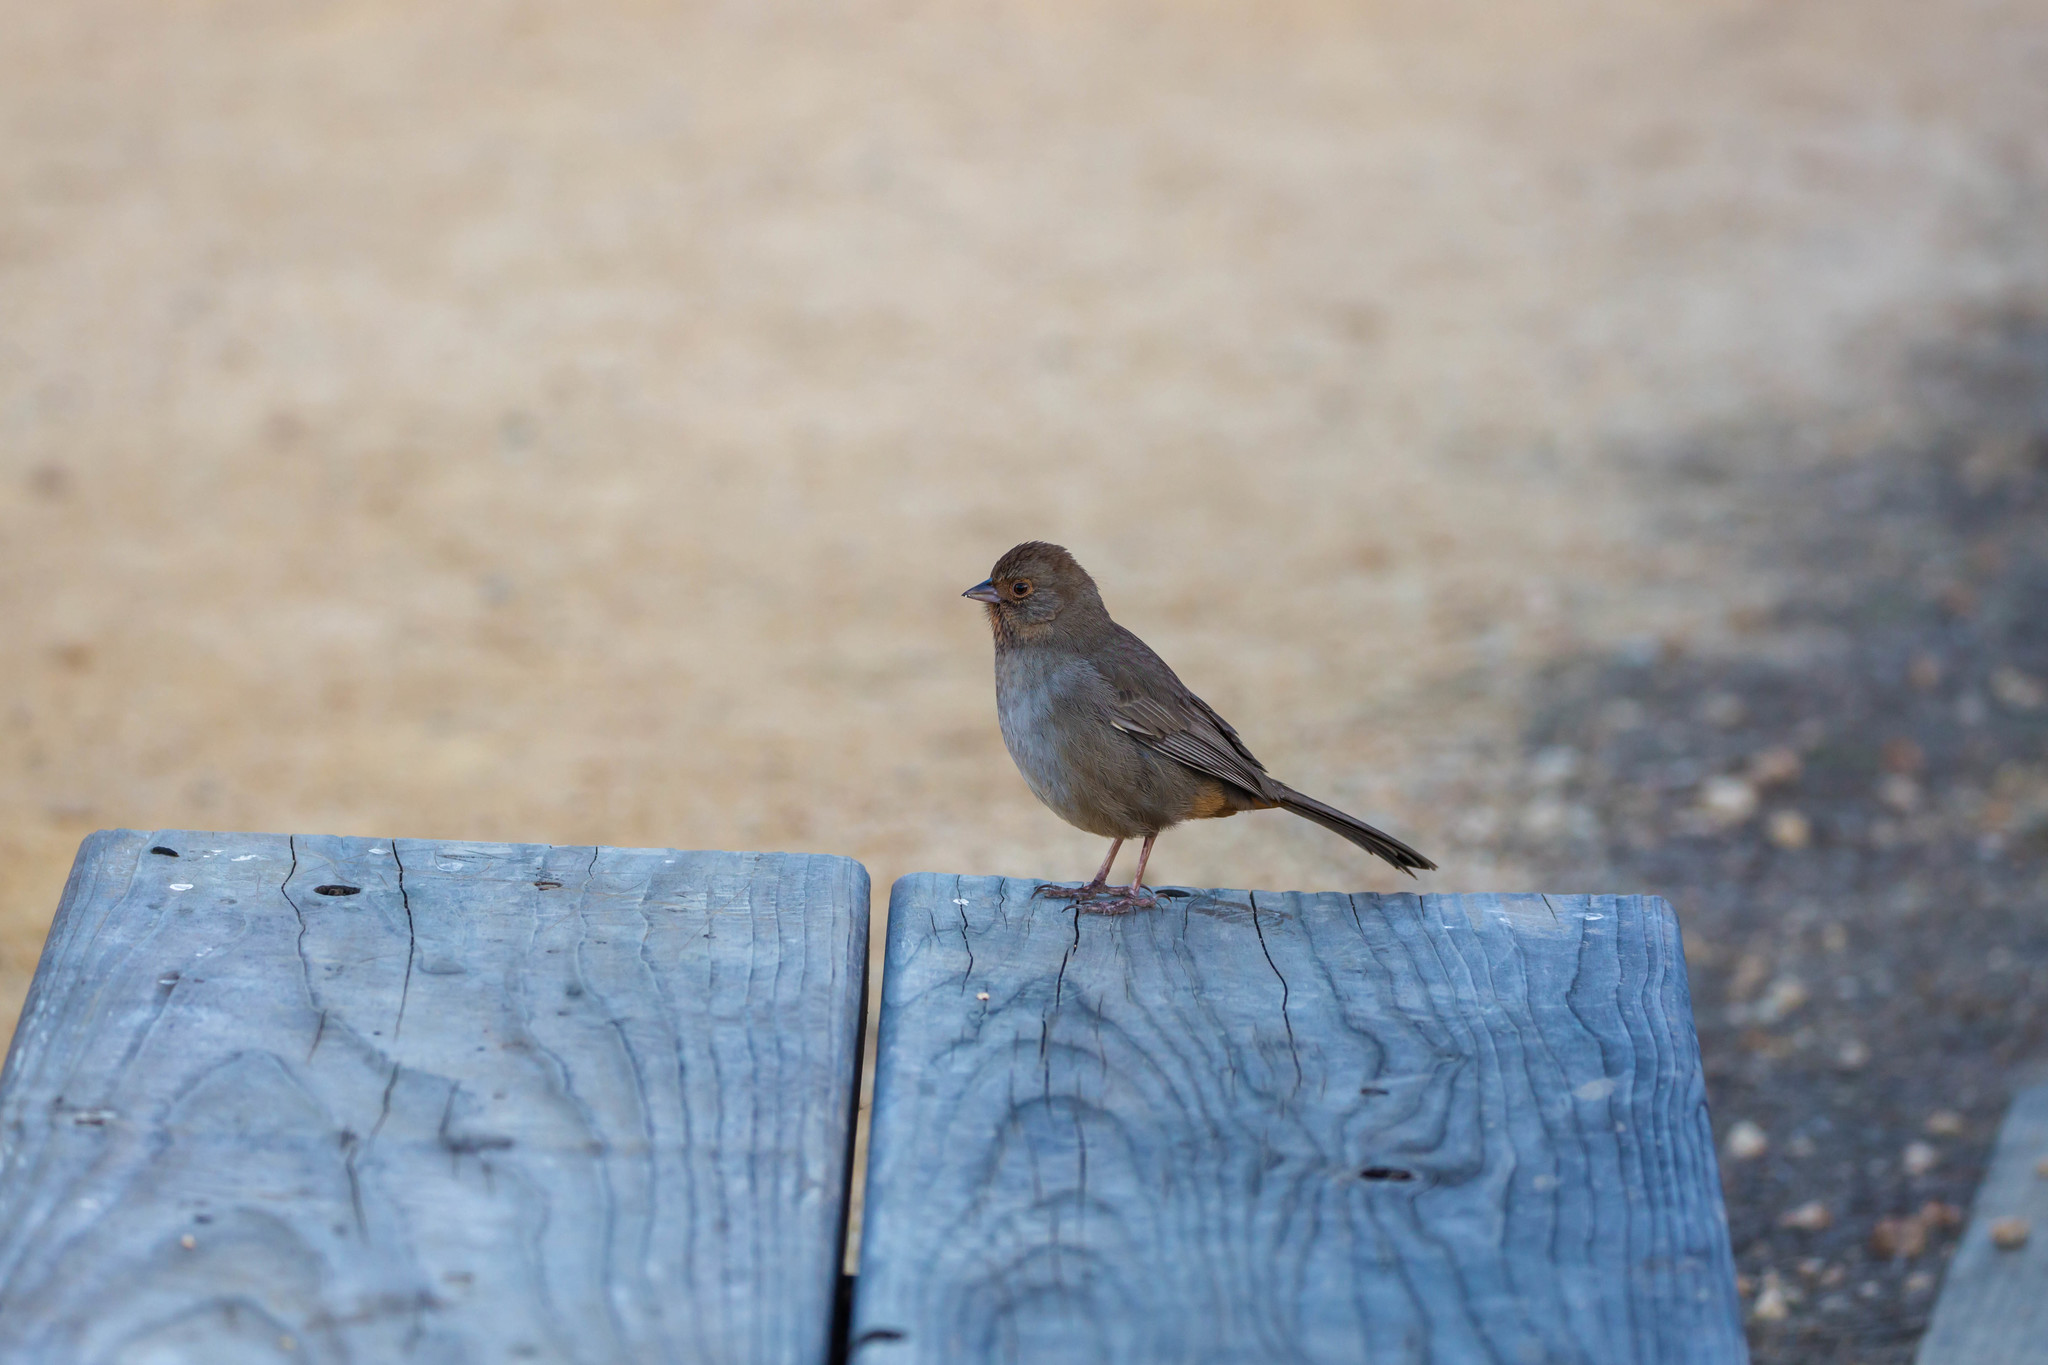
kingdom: Animalia
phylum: Chordata
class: Aves
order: Passeriformes
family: Passerellidae
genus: Melozone
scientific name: Melozone crissalis
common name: California towhee
